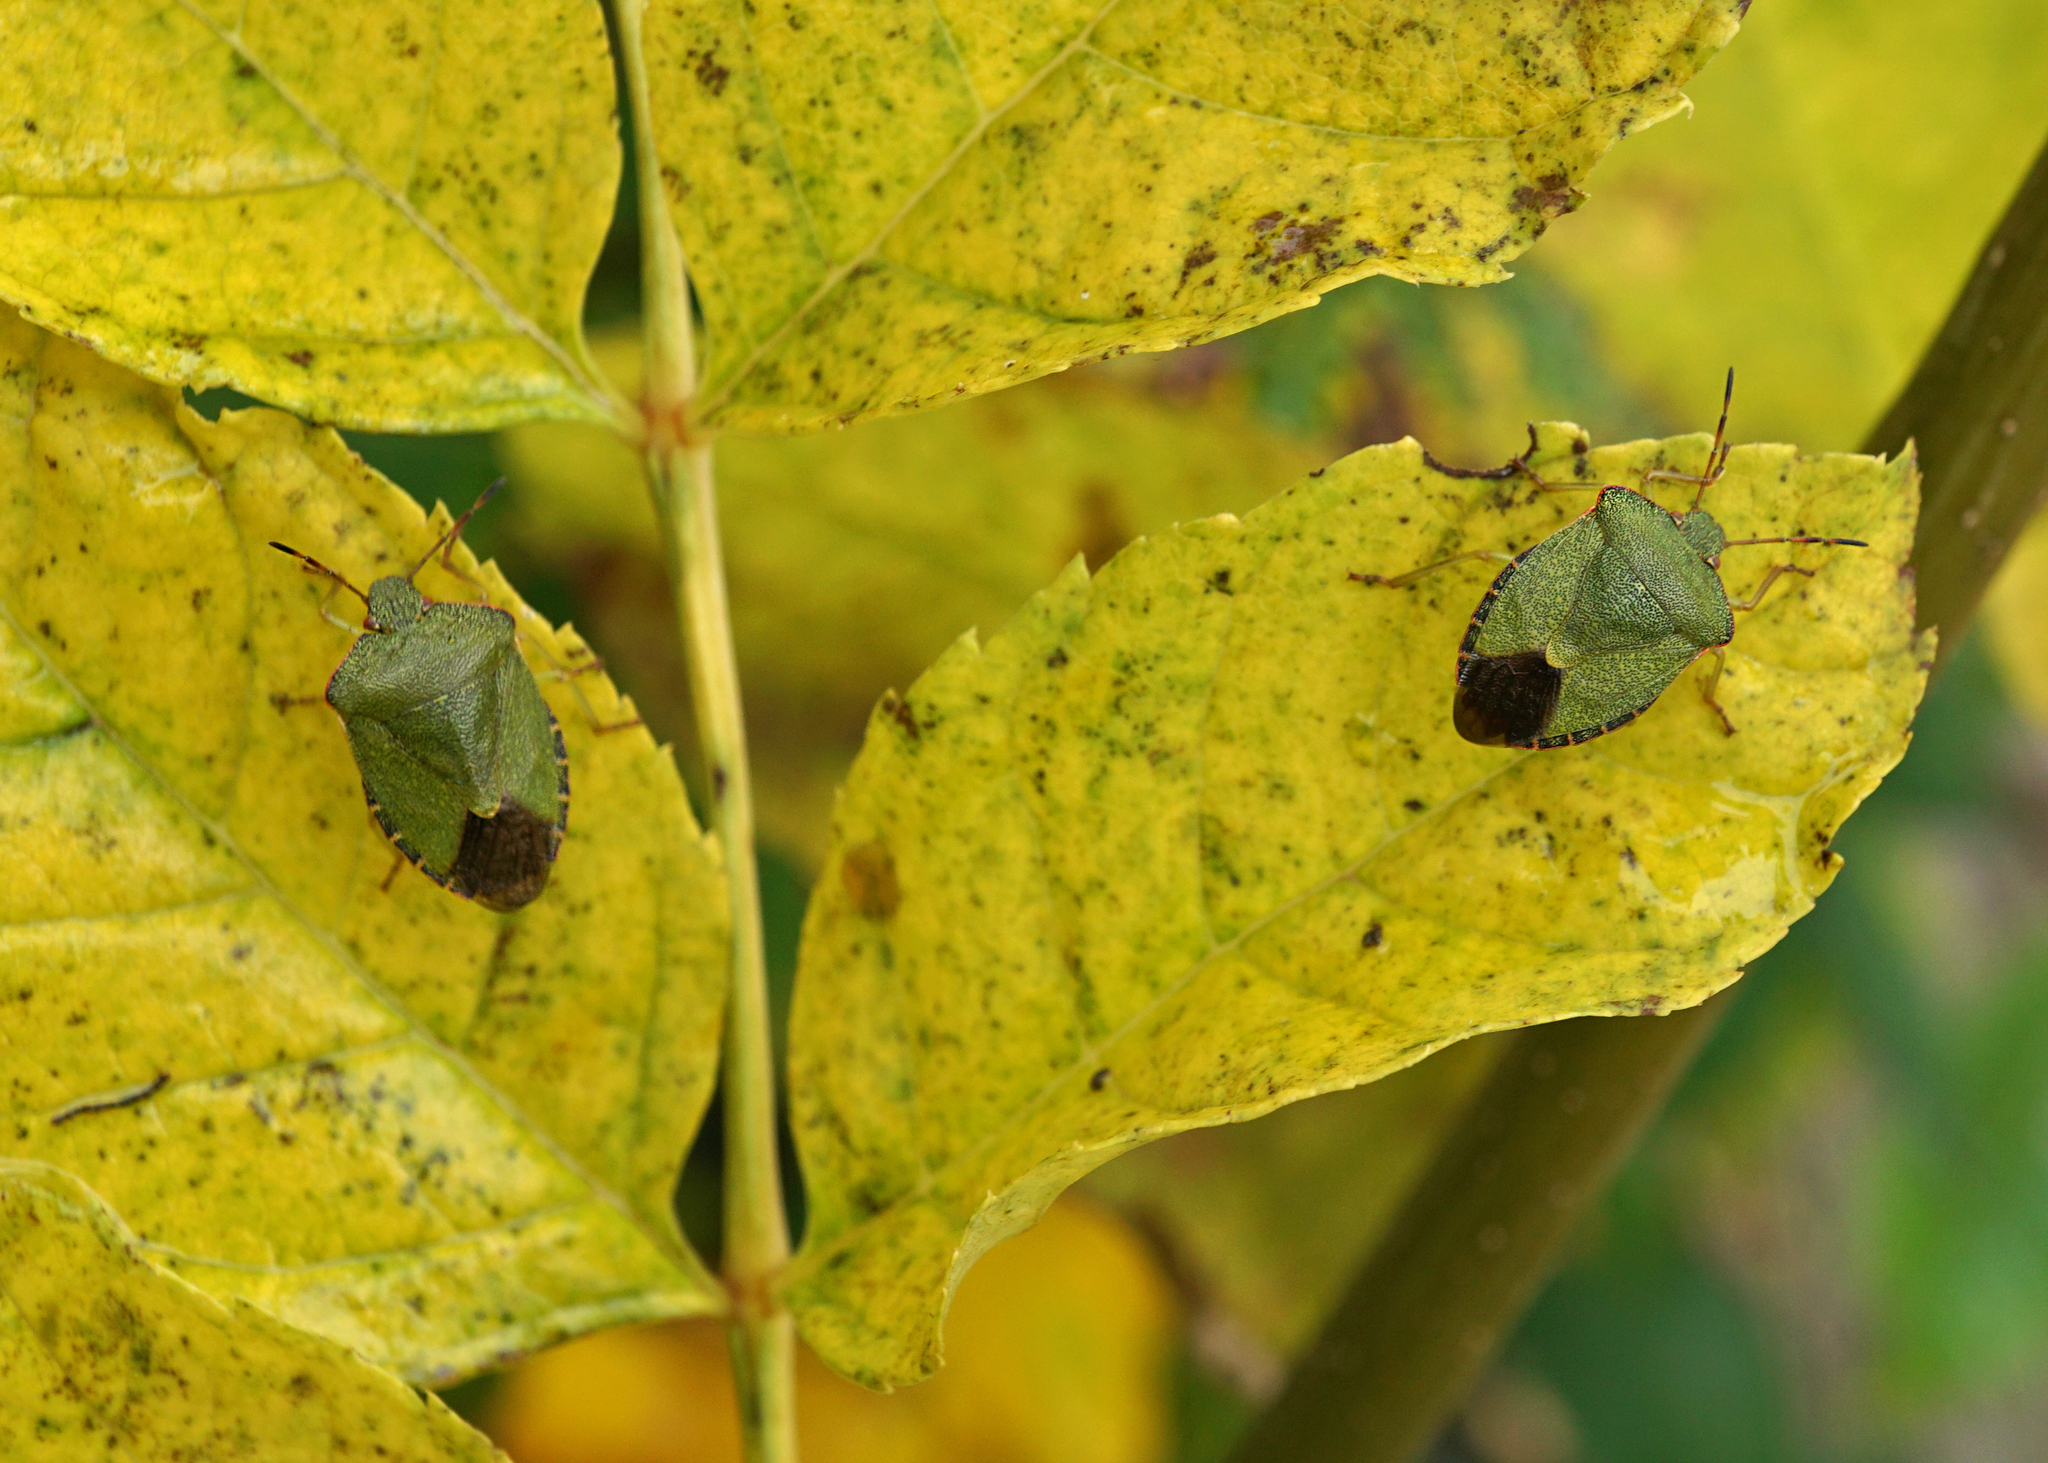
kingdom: Animalia
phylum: Arthropoda
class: Insecta
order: Hemiptera
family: Pentatomidae
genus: Palomena
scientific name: Palomena prasina
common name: Green shieldbug
